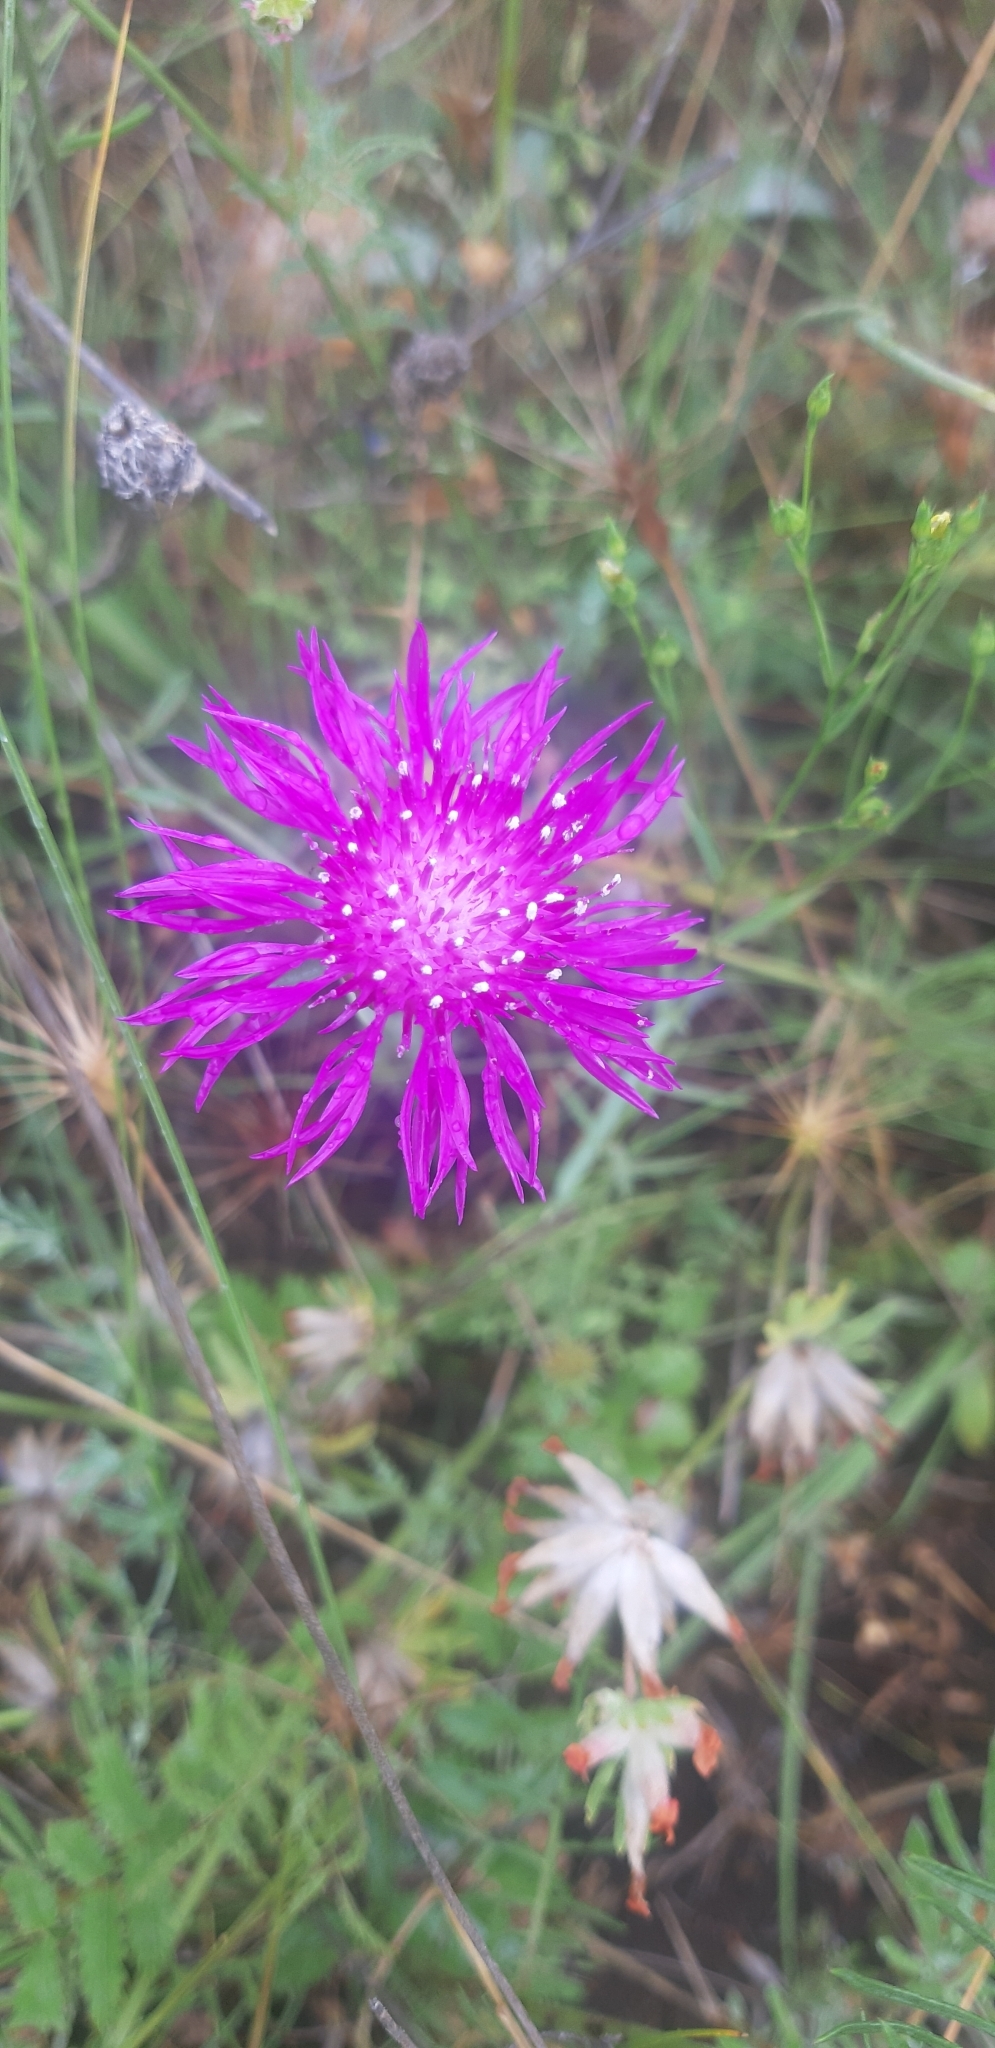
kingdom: Plantae
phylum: Tracheophyta
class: Magnoliopsida
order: Asterales
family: Asteraceae
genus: Centaurea
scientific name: Centaurea deusta
